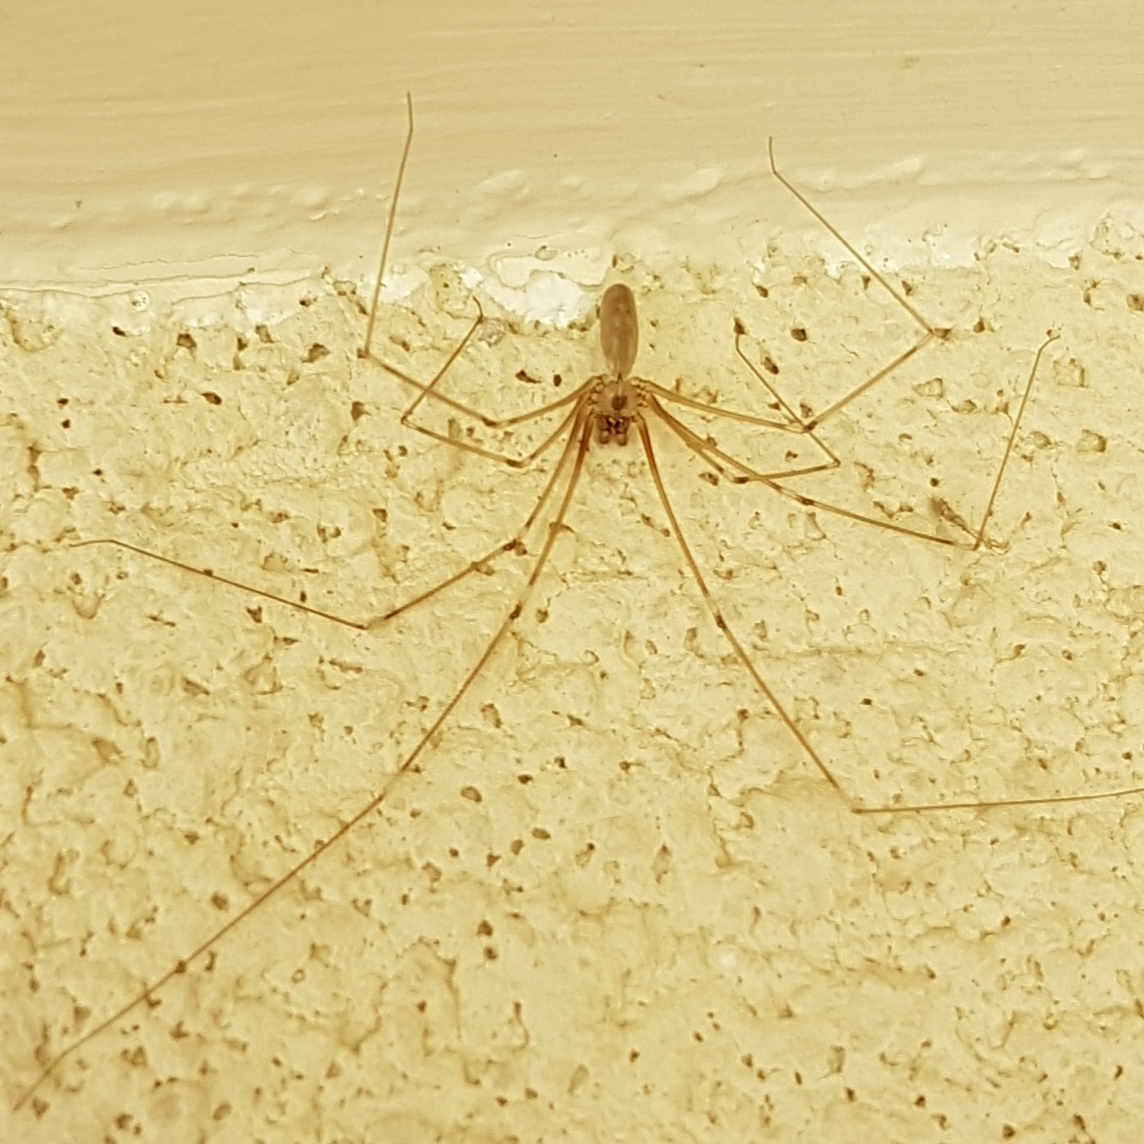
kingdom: Animalia
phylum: Arthropoda
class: Arachnida
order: Araneae
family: Pholcidae
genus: Pholcus
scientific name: Pholcus phalangioides
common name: Longbodied cellar spider
